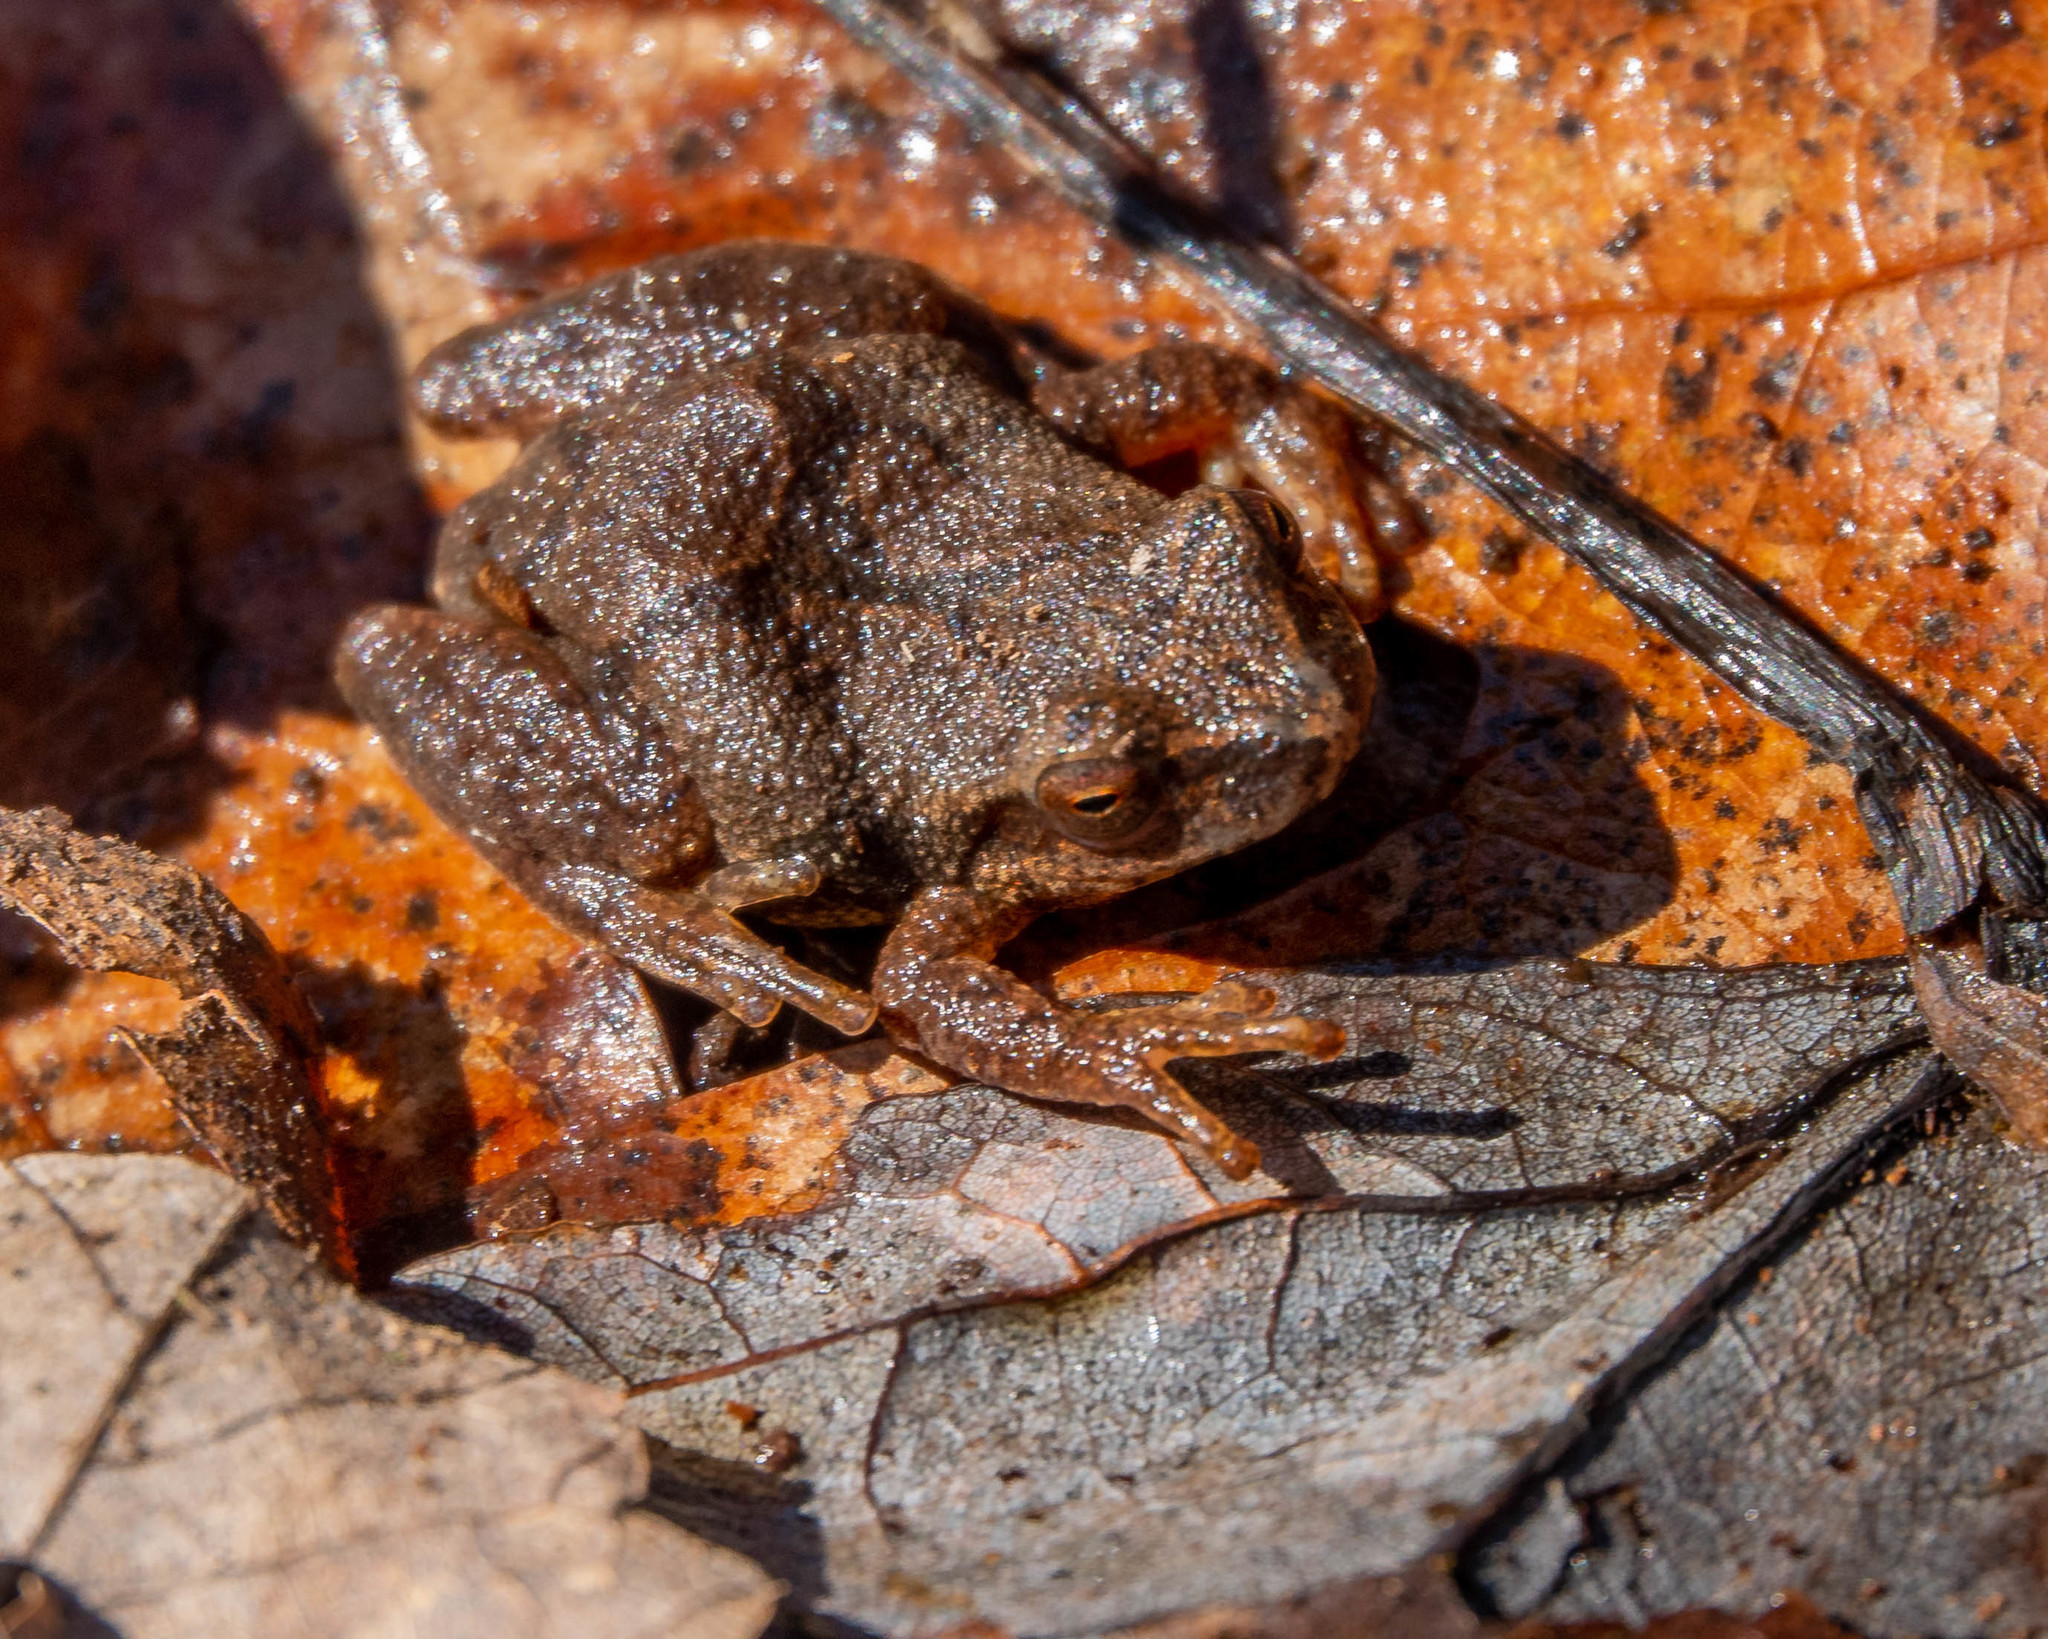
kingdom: Animalia
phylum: Chordata
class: Amphibia
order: Anura
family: Hylidae
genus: Pseudacris
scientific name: Pseudacris crucifer
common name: Spring peeper
